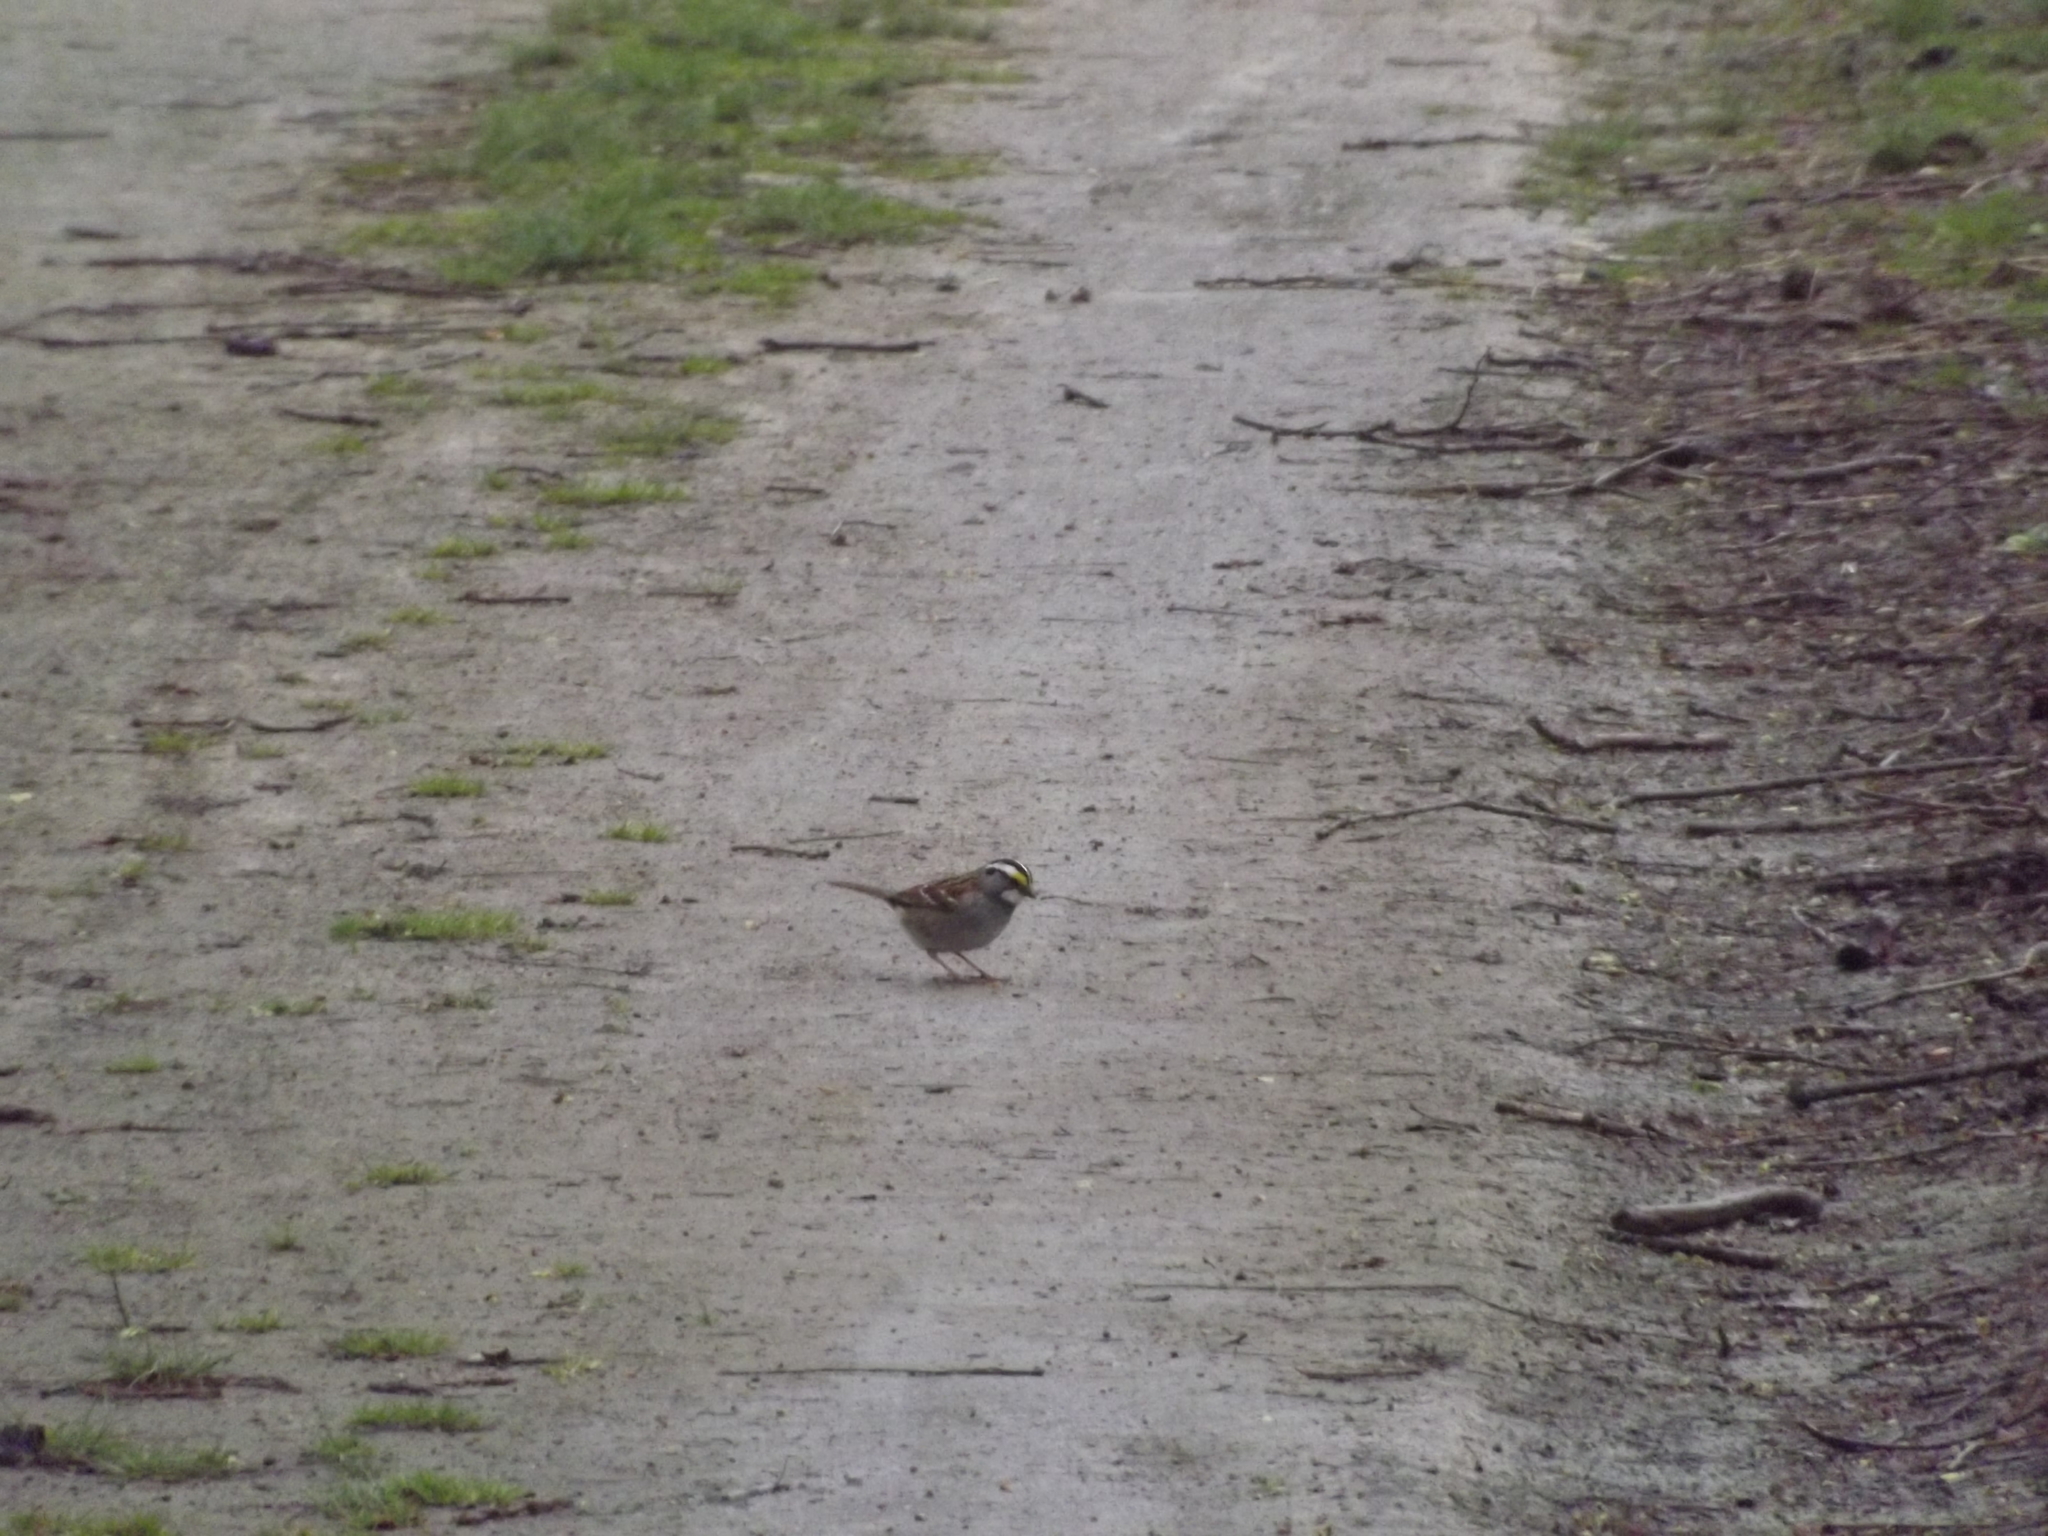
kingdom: Animalia
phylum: Chordata
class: Aves
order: Passeriformes
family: Passerellidae
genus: Zonotrichia
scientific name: Zonotrichia albicollis
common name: White-throated sparrow
